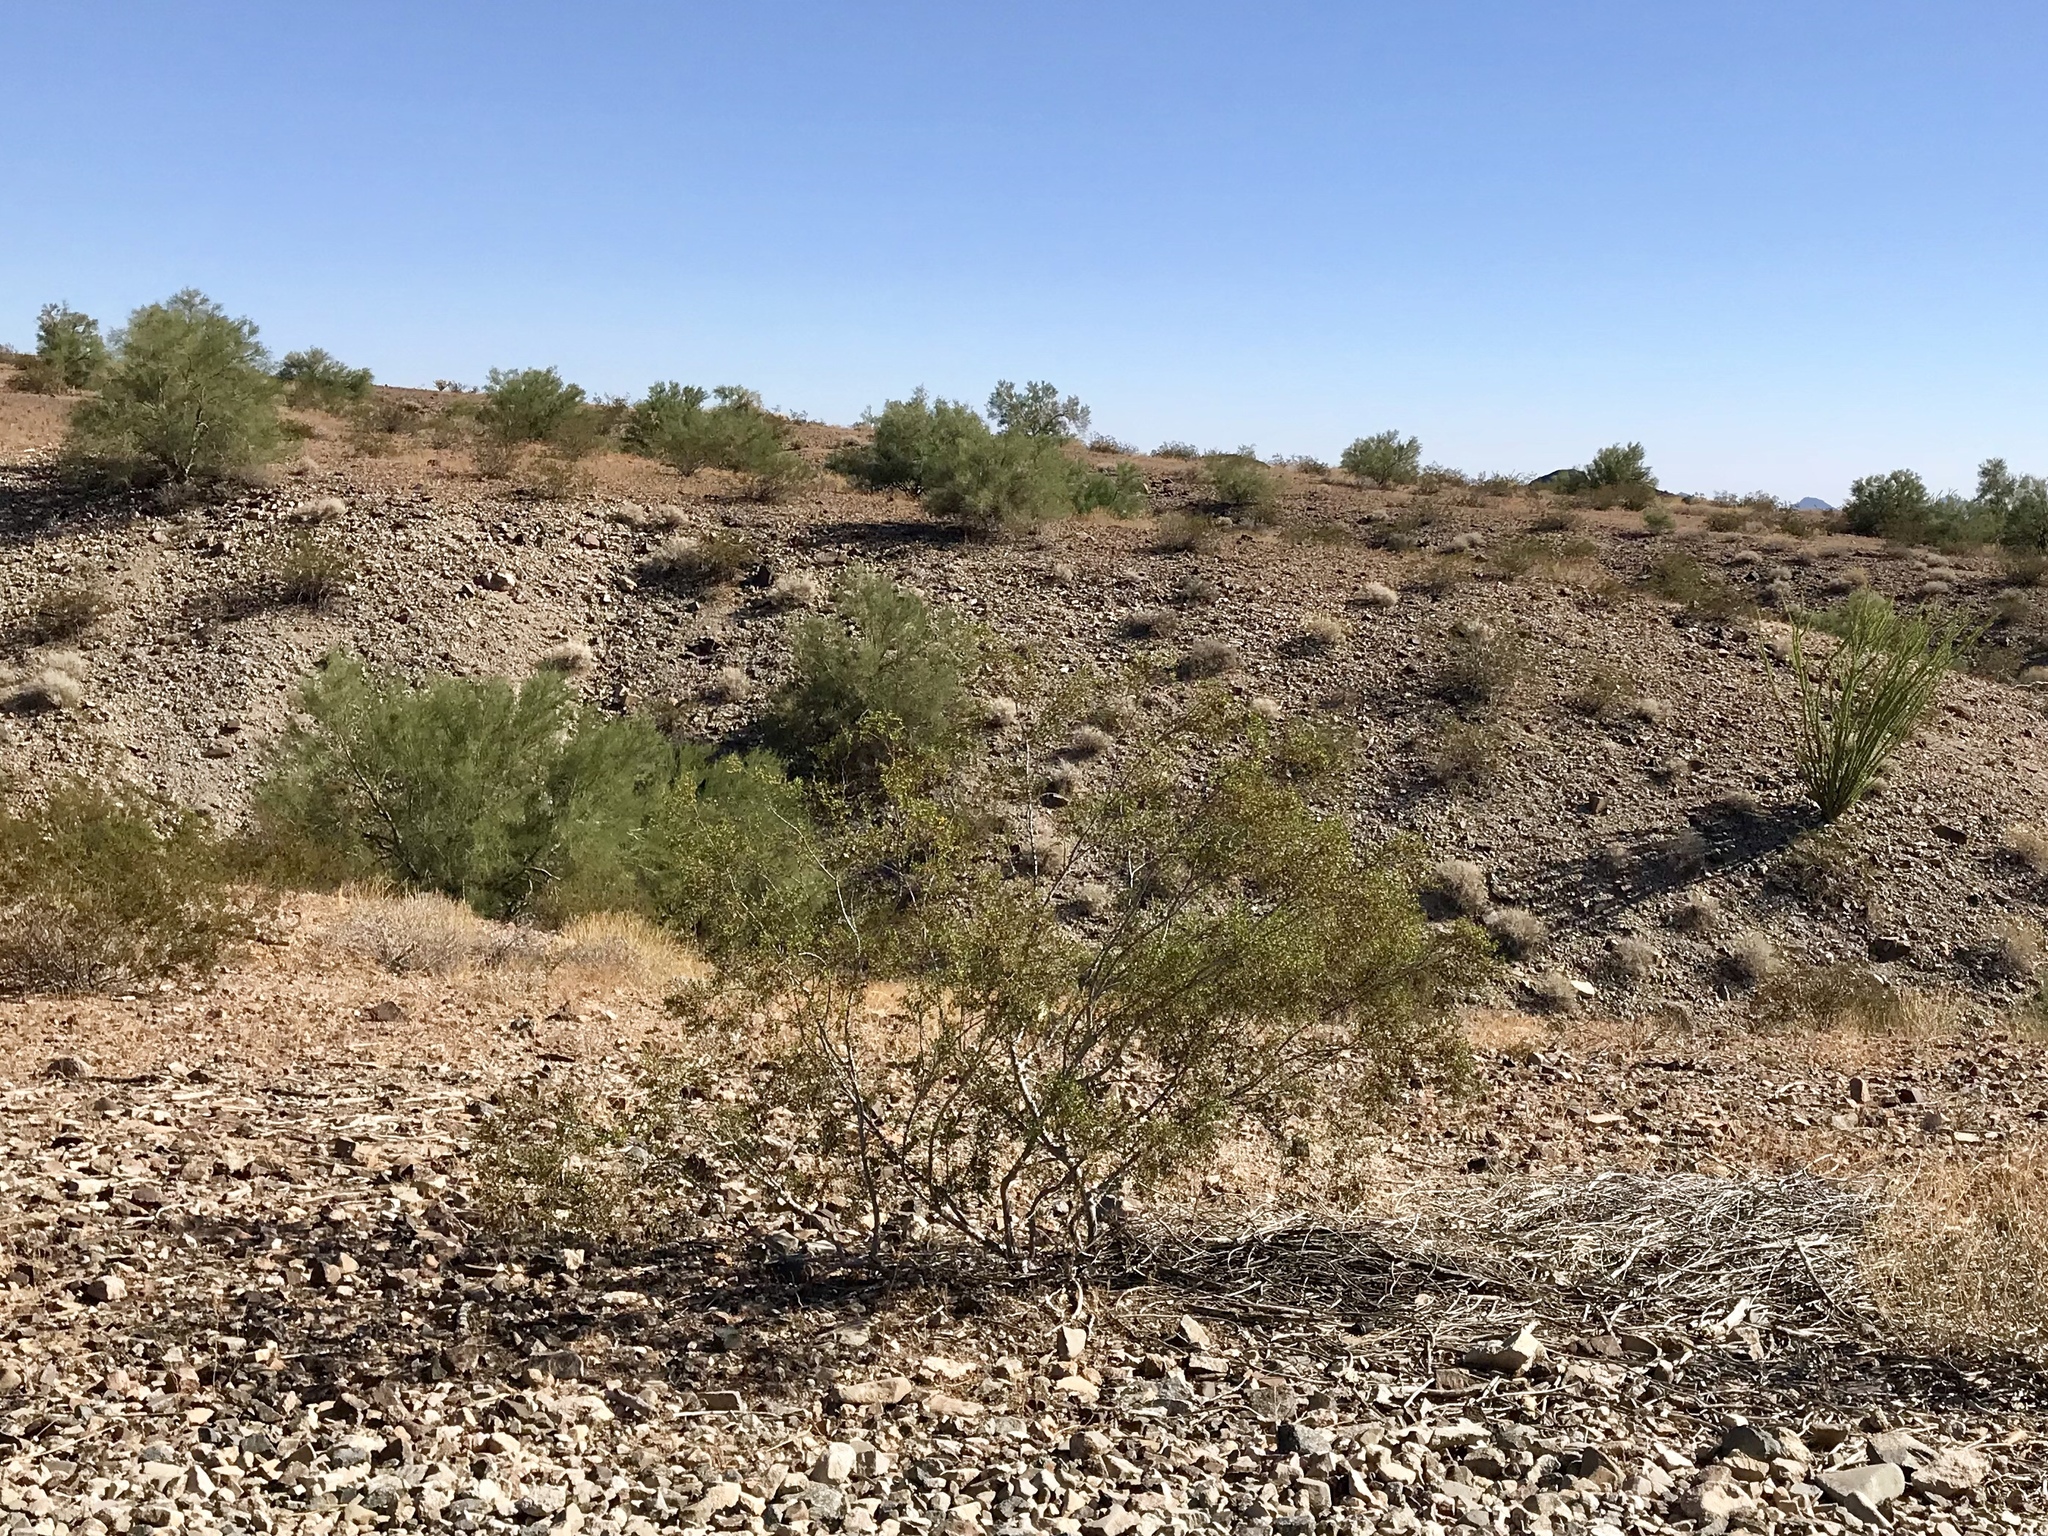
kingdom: Plantae
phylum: Tracheophyta
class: Magnoliopsida
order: Zygophyllales
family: Zygophyllaceae
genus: Larrea
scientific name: Larrea tridentata
